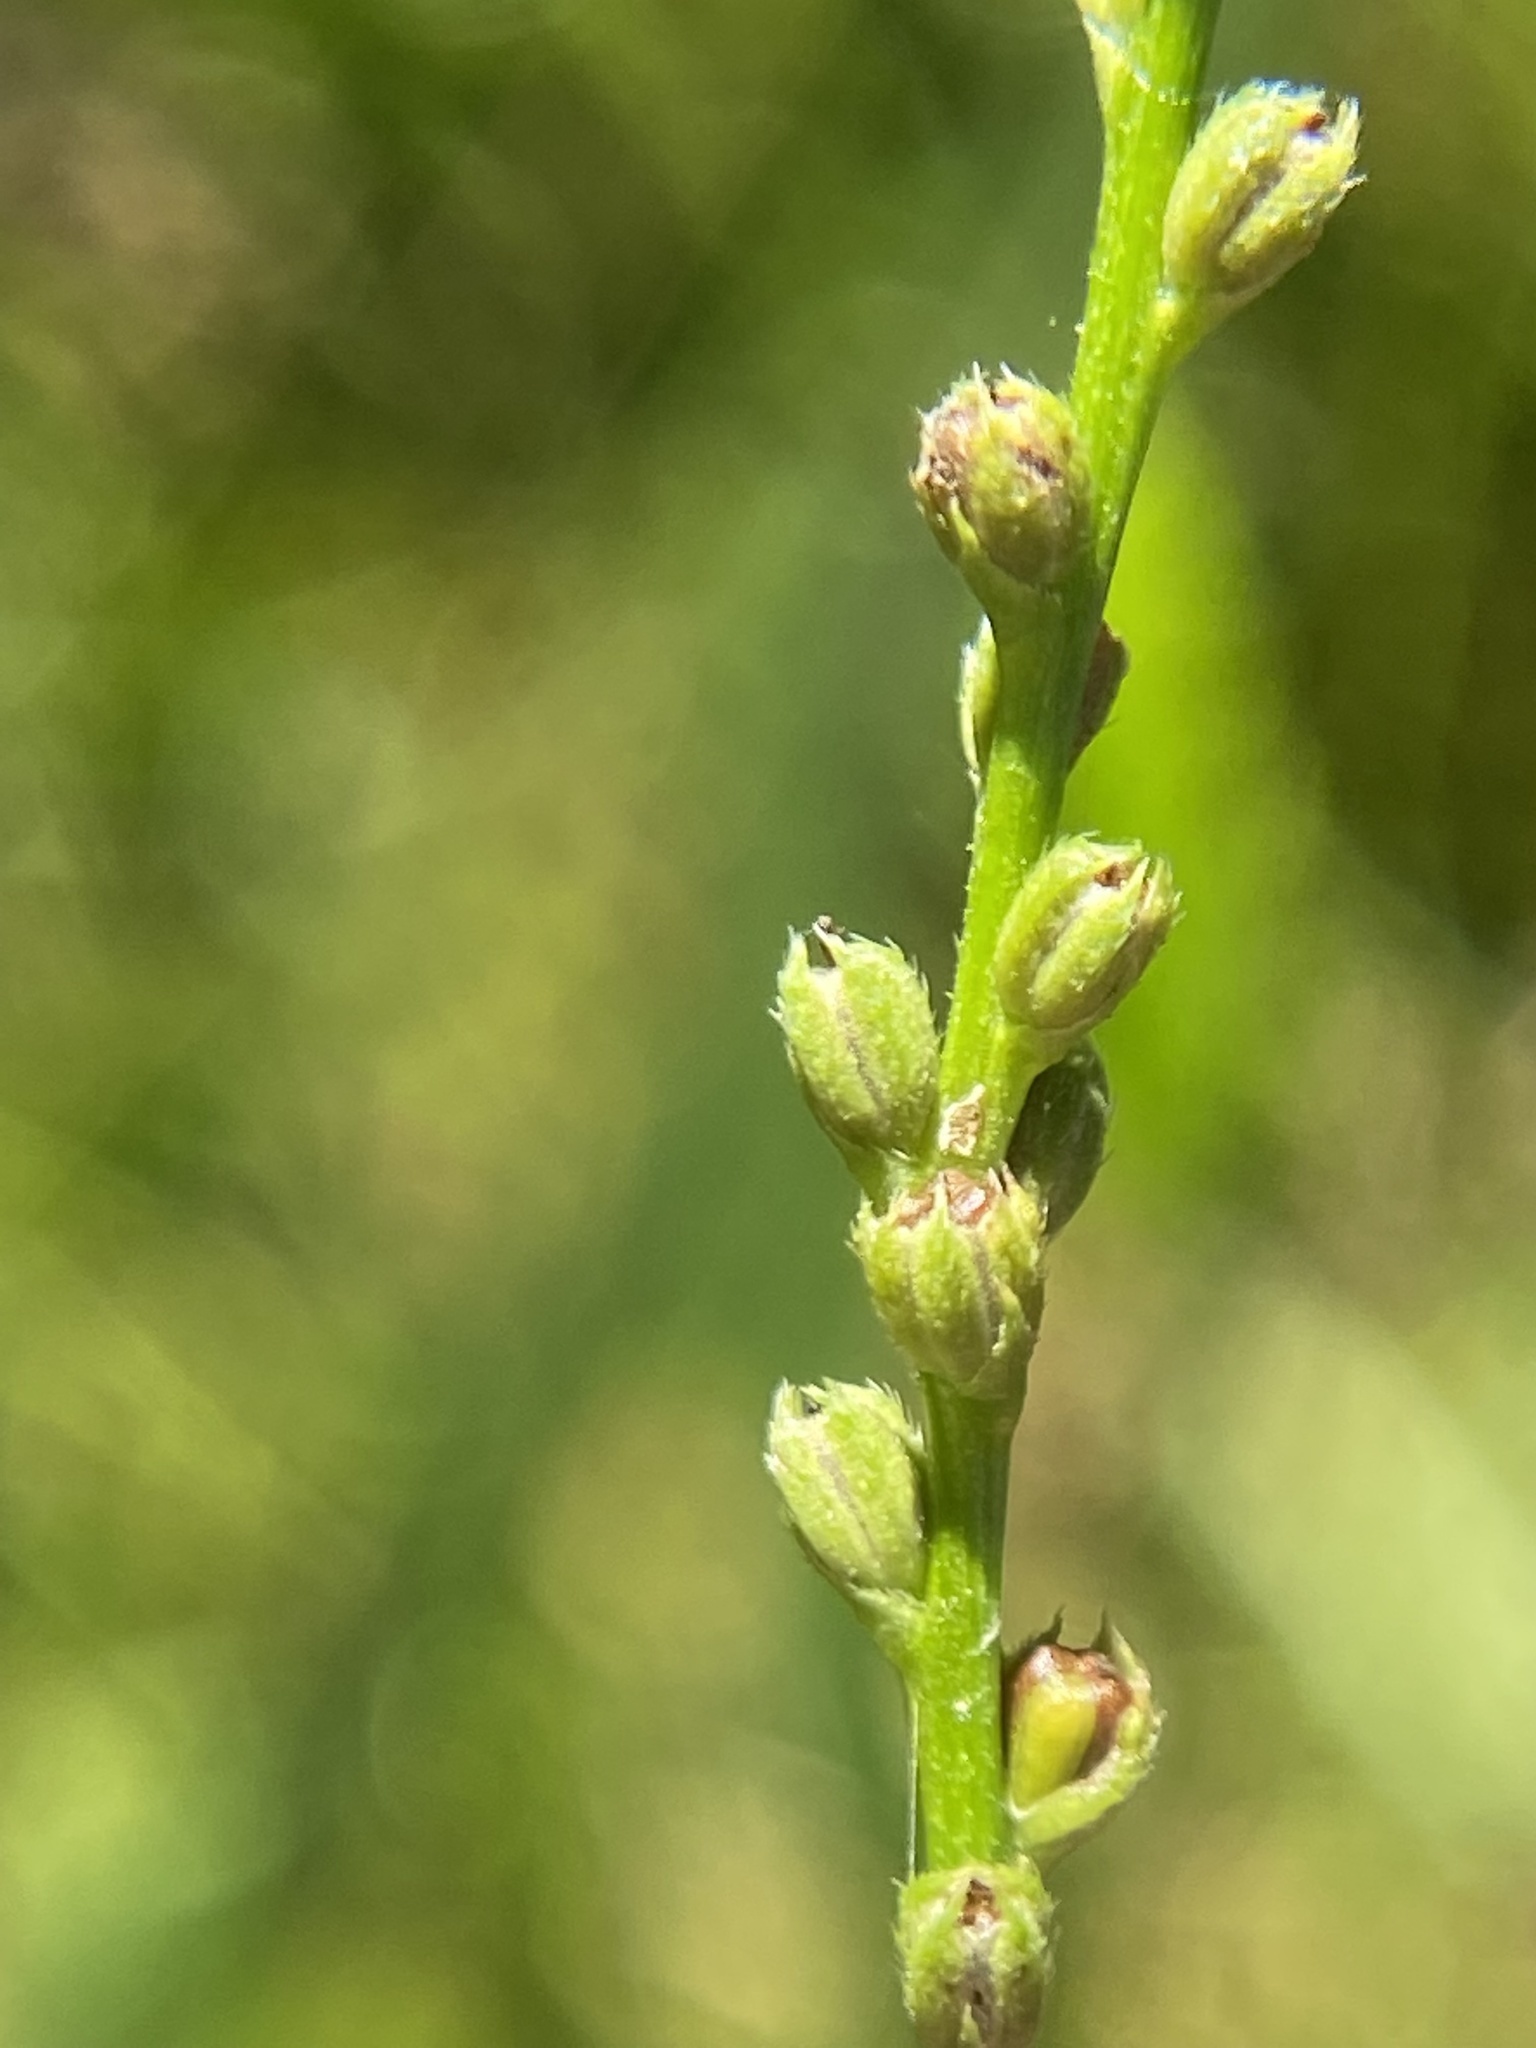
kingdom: Plantae
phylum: Tracheophyta
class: Magnoliopsida
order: Lamiales
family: Verbenaceae
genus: Verbena
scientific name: Verbena urticifolia
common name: Nettle-leaved vervain
